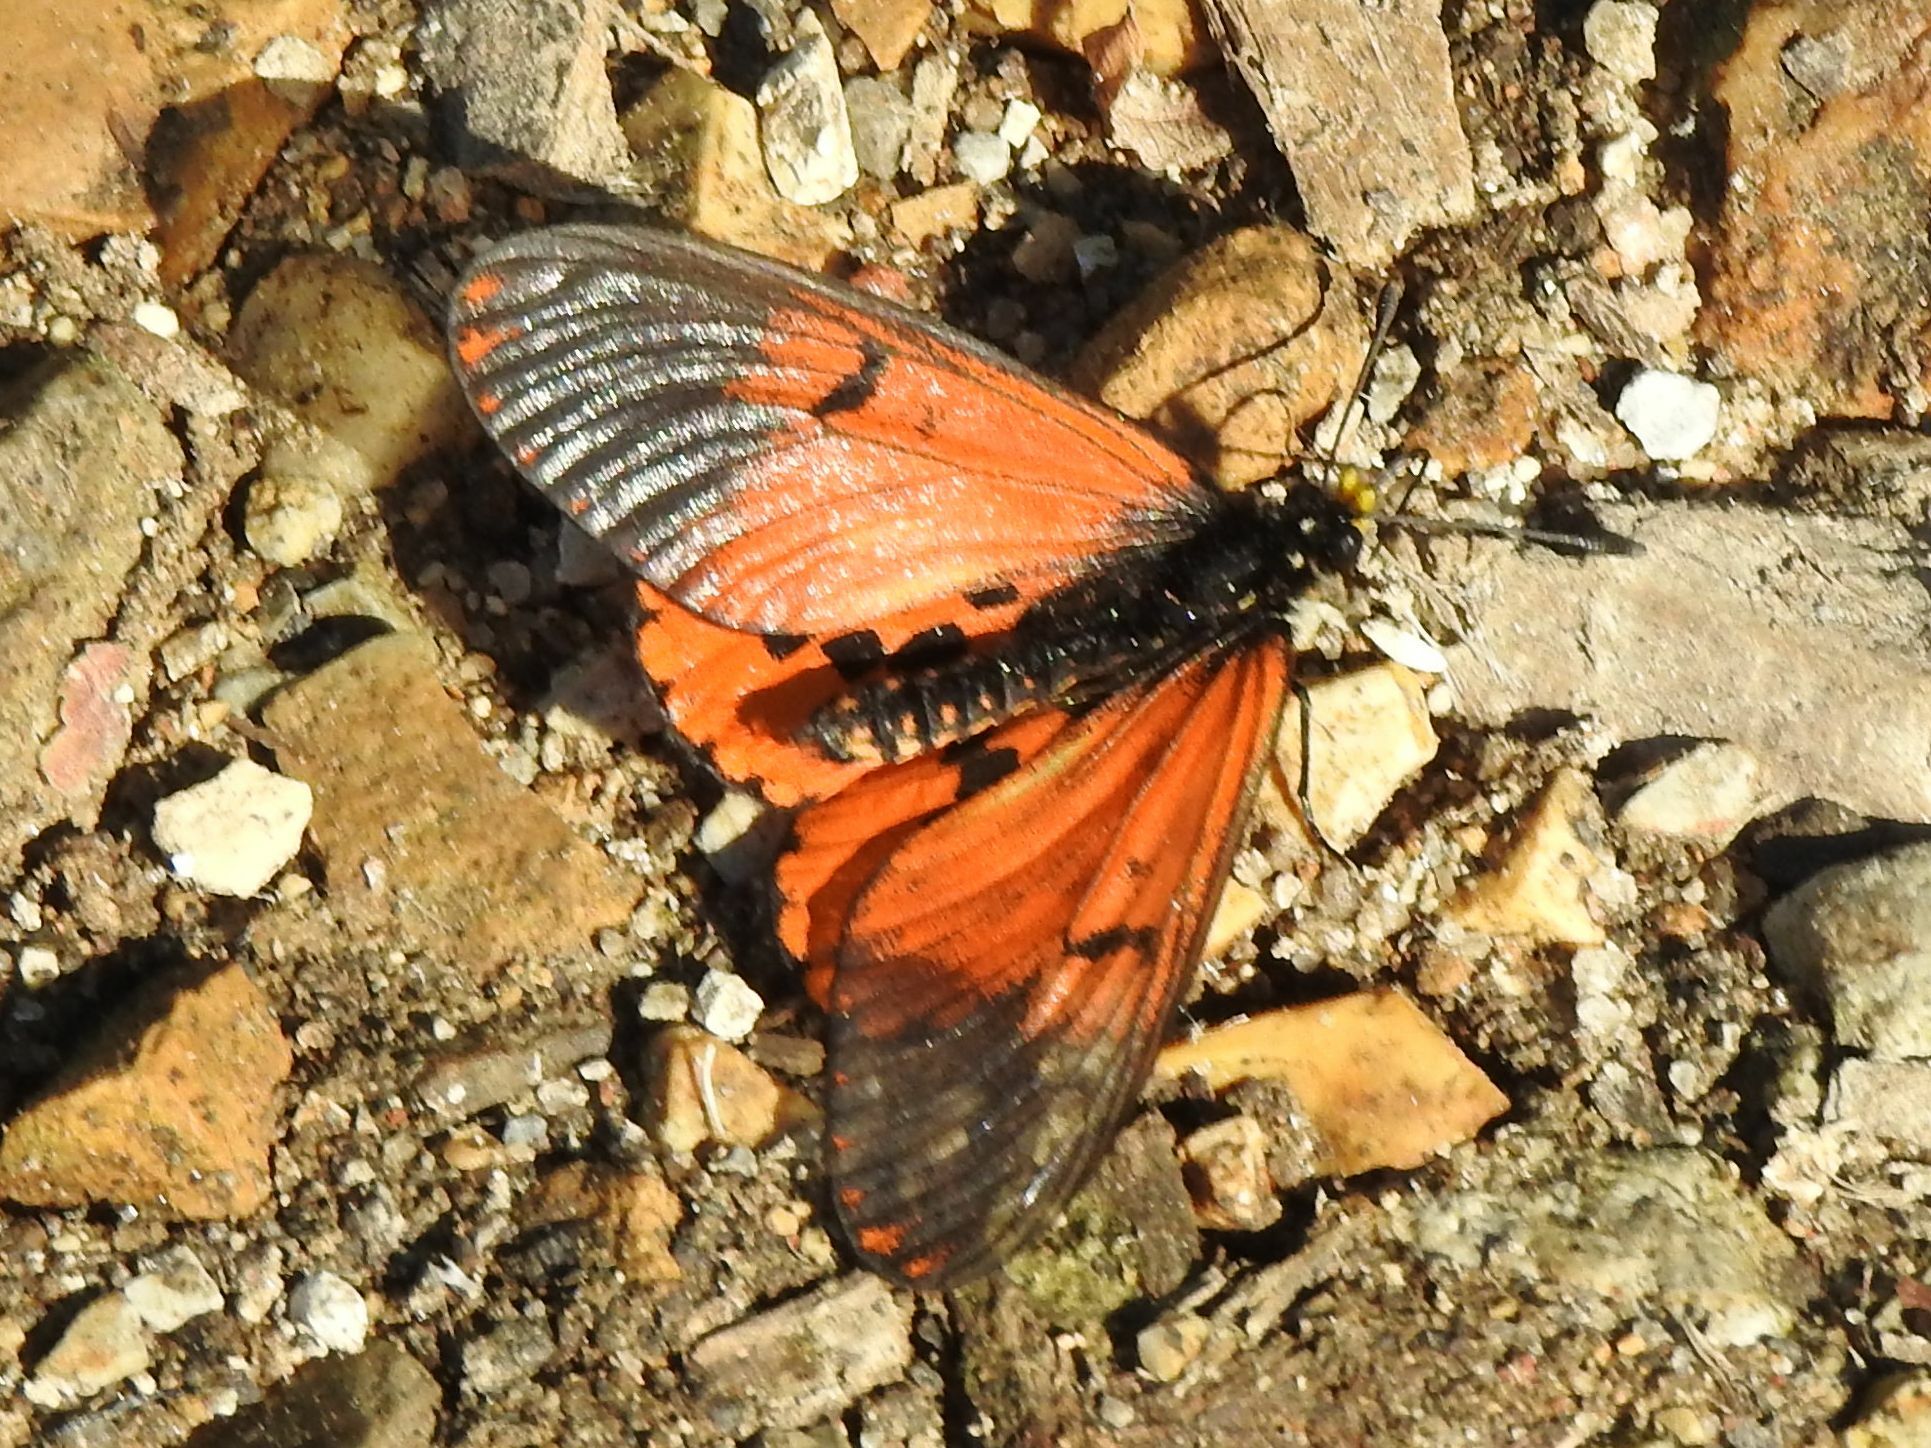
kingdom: Animalia
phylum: Arthropoda
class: Insecta
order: Lepidoptera
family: Nymphalidae
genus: Acraea
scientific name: Acraea horta
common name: Garden acraea
